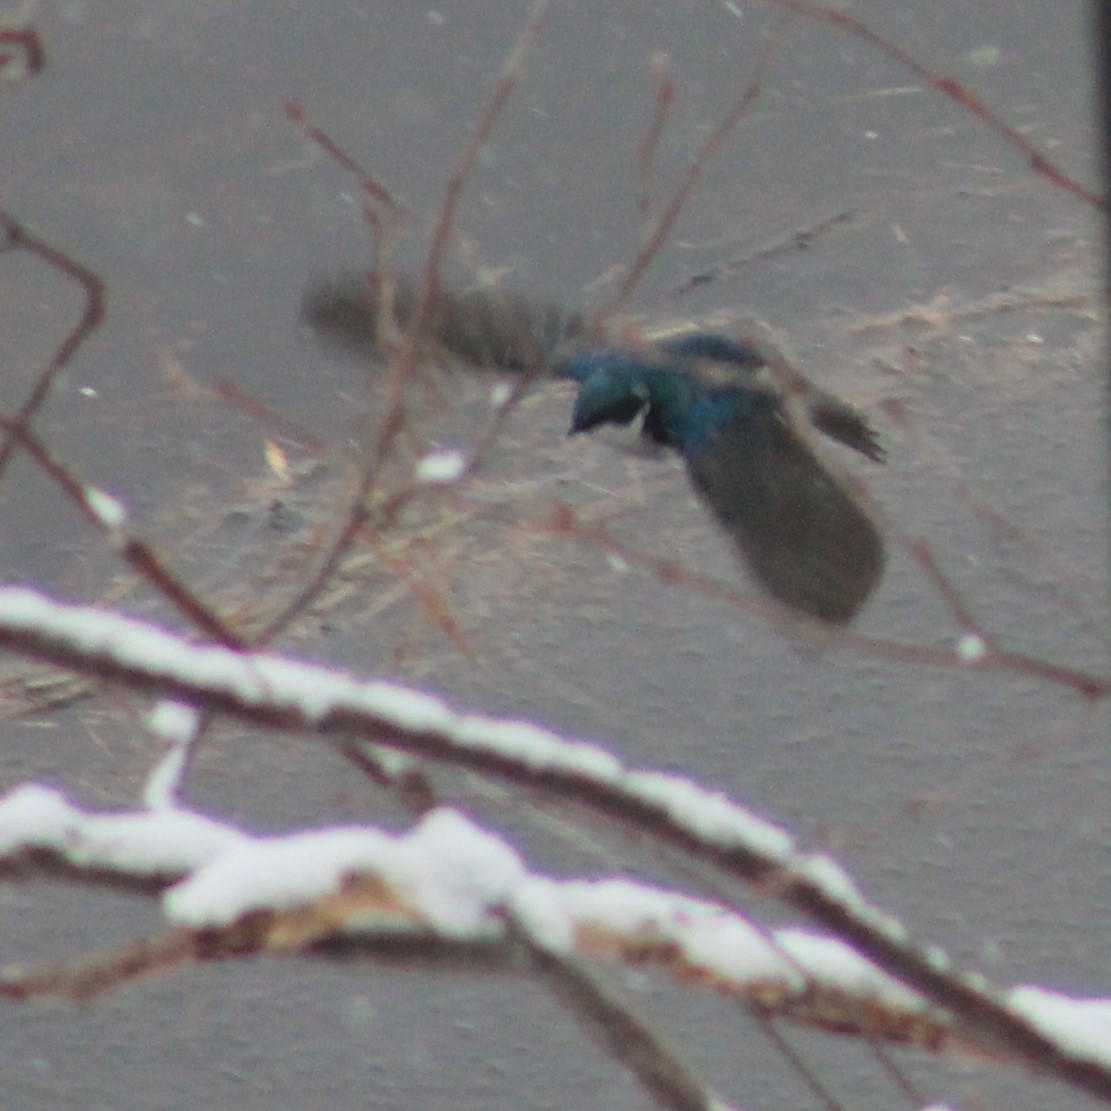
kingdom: Animalia
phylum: Chordata
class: Aves
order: Passeriformes
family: Hirundinidae
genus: Tachycineta
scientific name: Tachycineta bicolor
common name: Tree swallow
